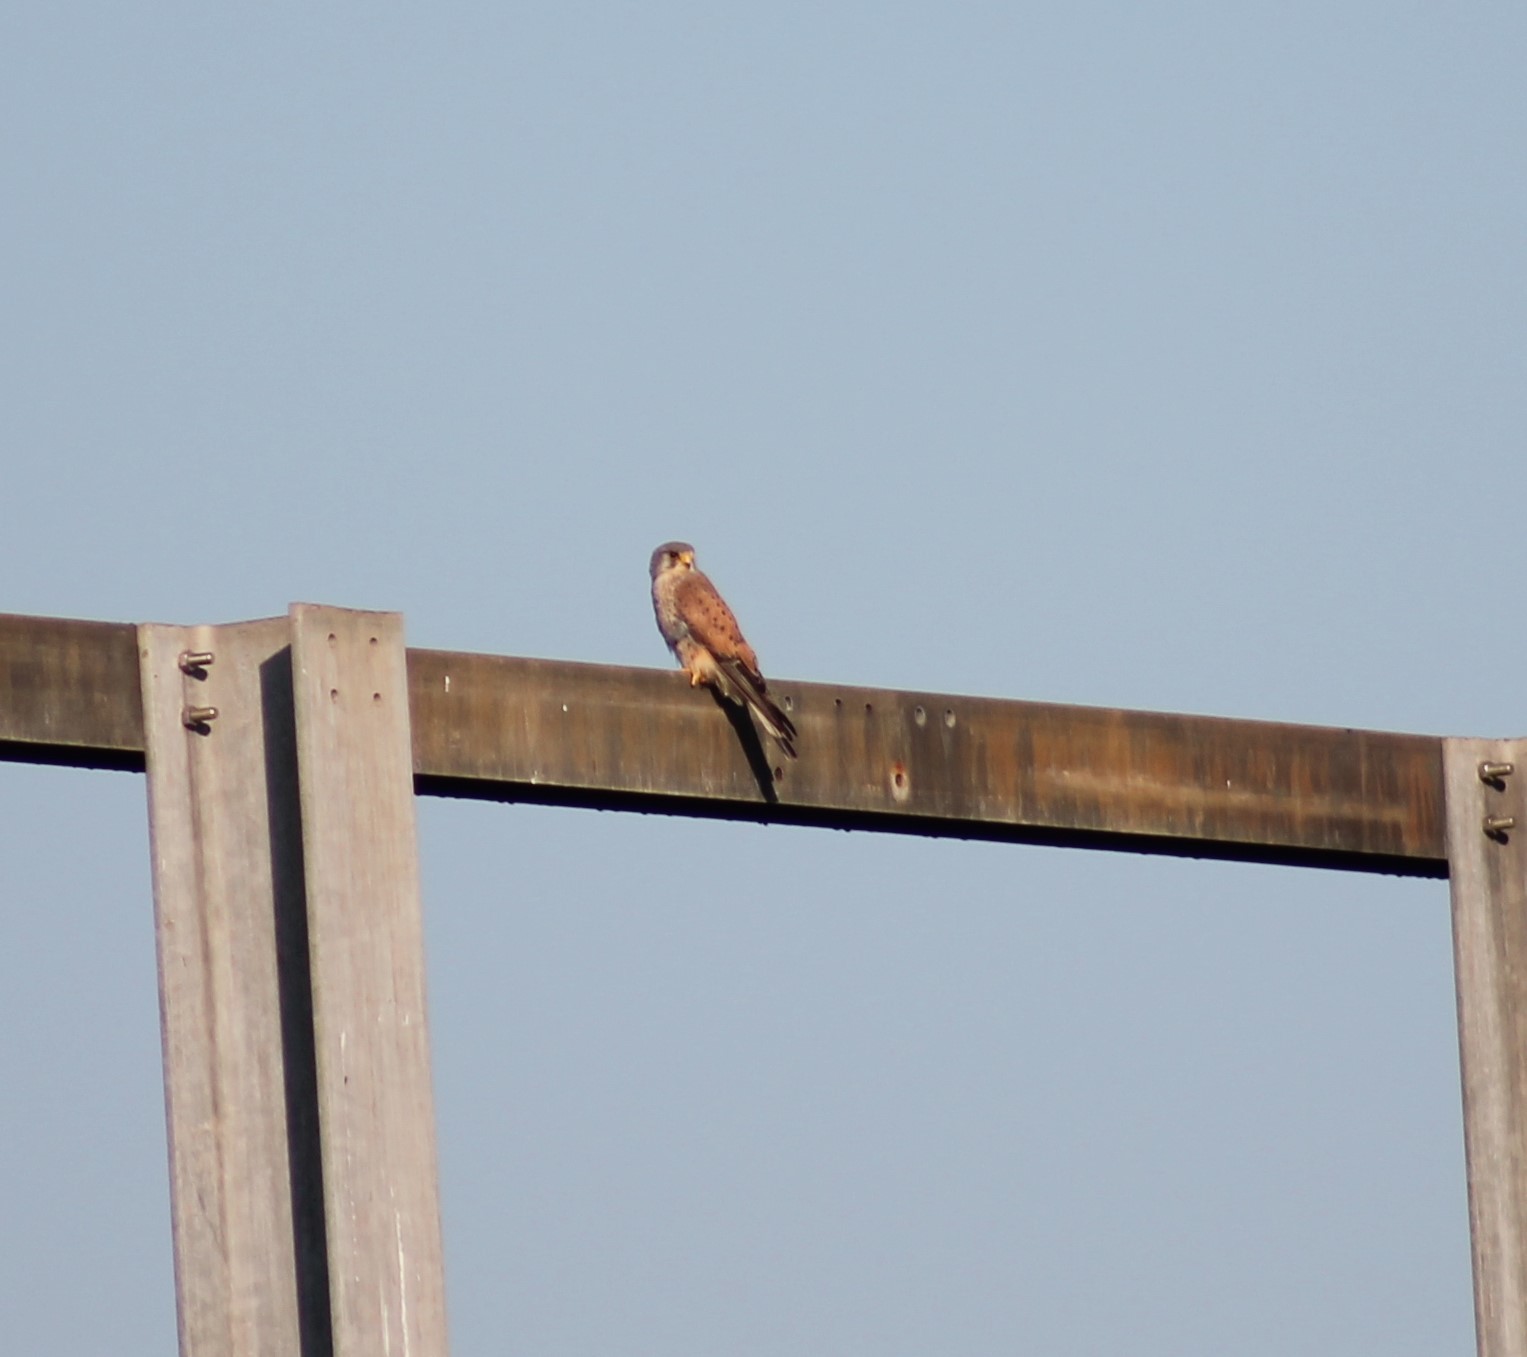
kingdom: Animalia
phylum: Chordata
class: Aves
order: Falconiformes
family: Falconidae
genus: Falco
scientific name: Falco tinnunculus
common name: Common kestrel
